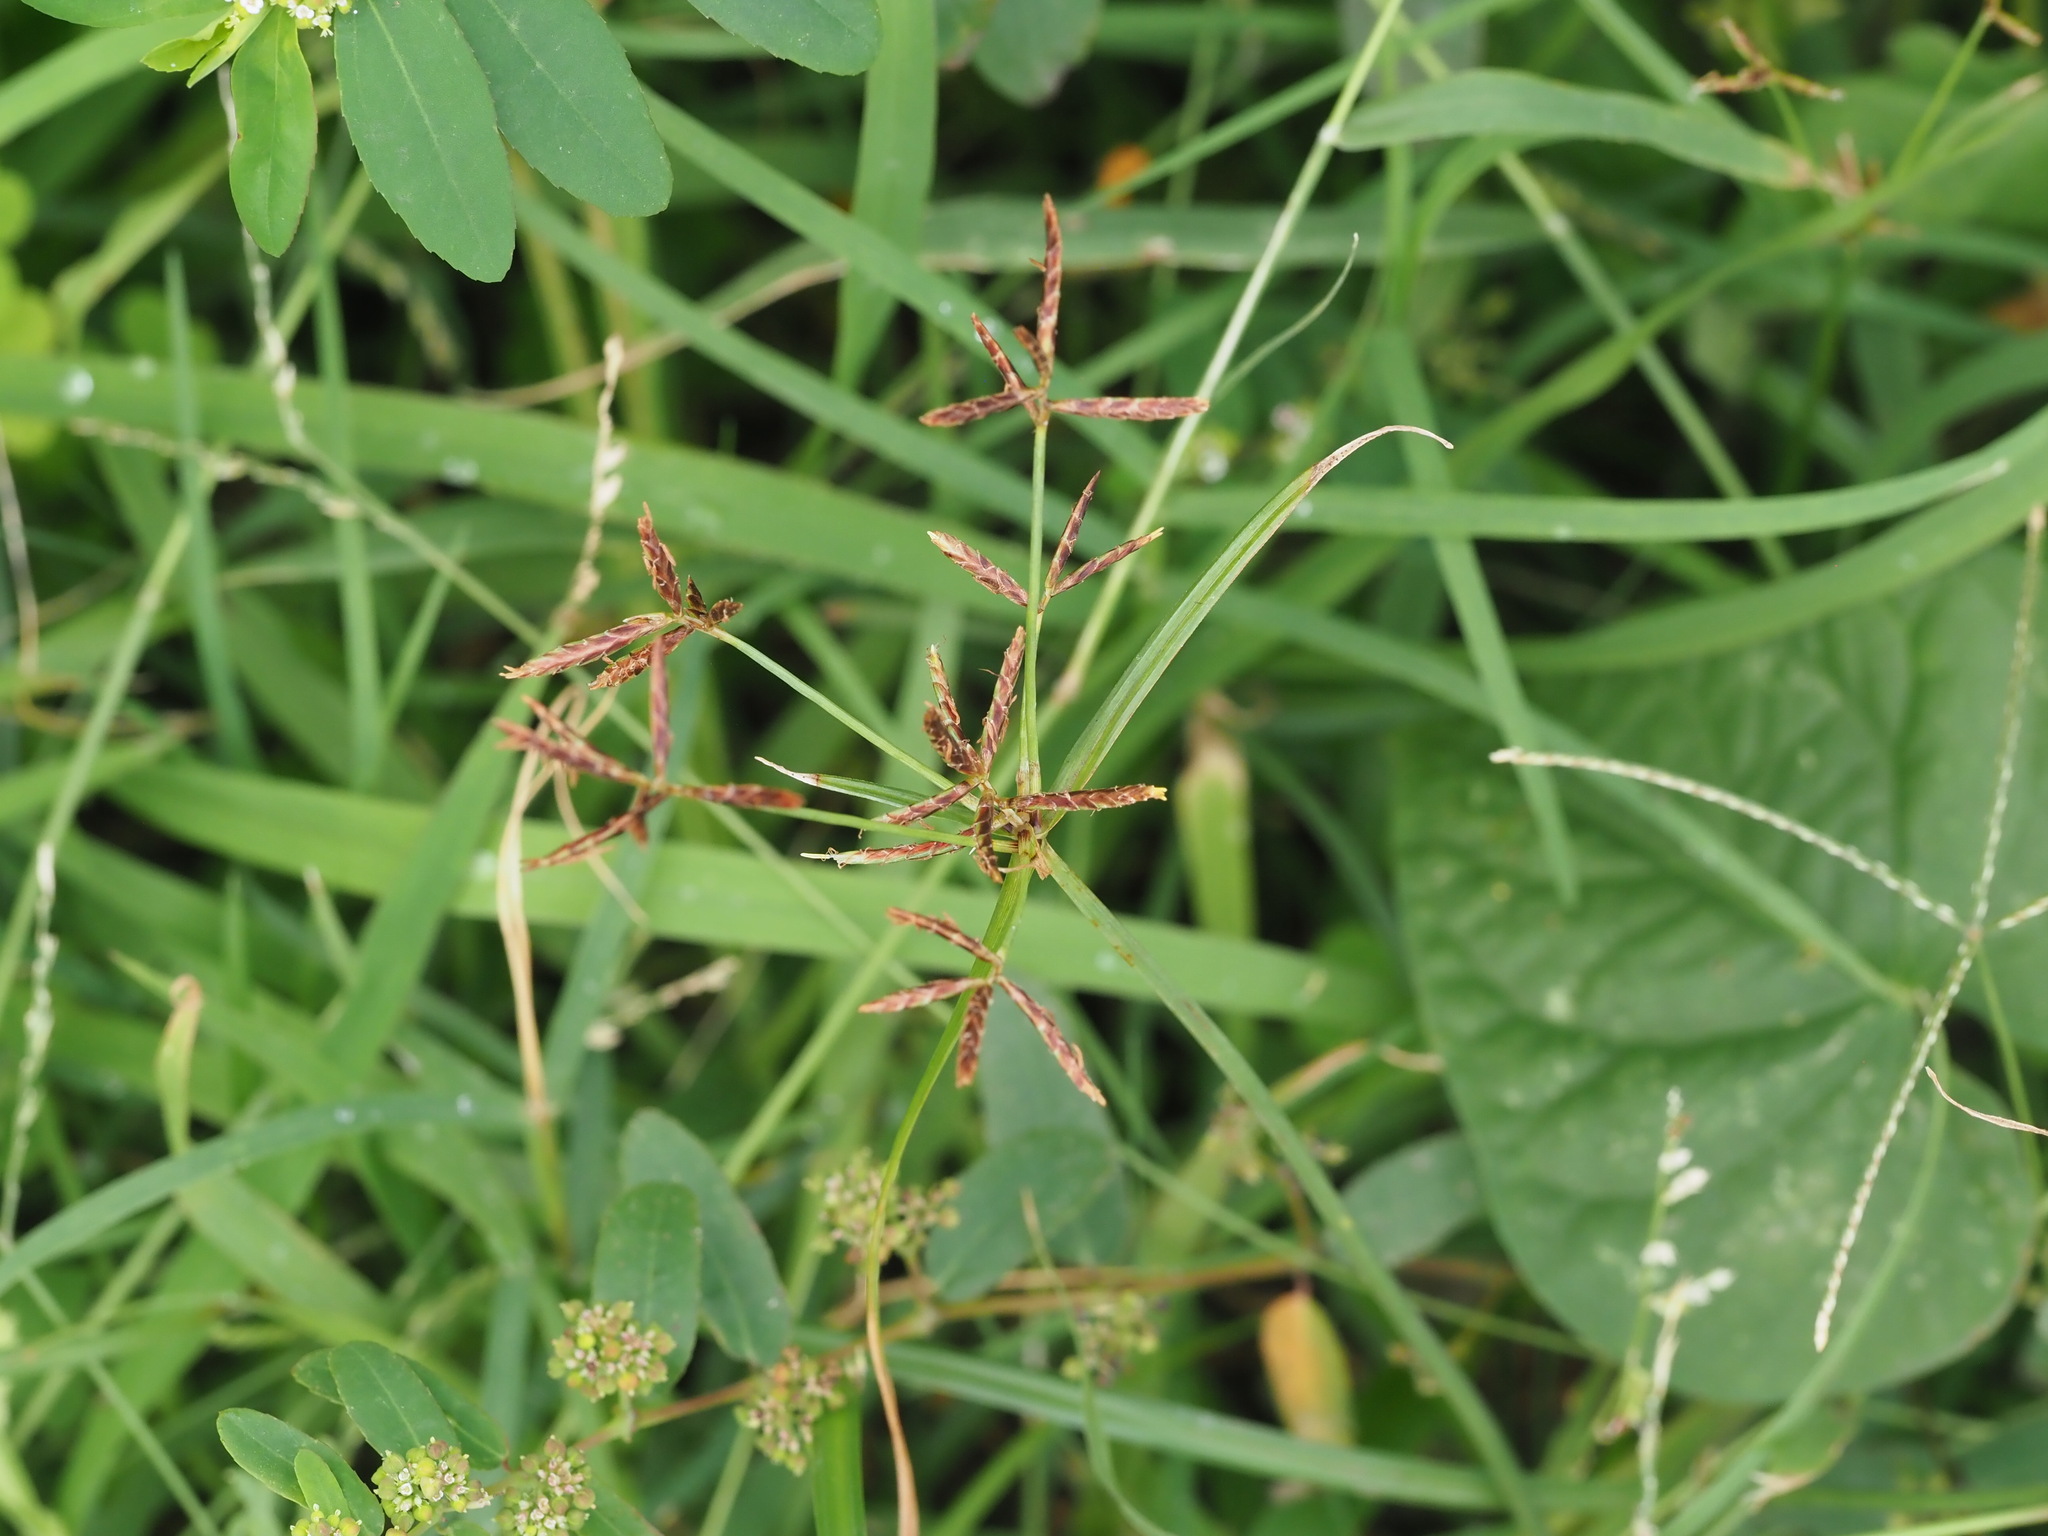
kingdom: Plantae
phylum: Tracheophyta
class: Liliopsida
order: Poales
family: Cyperaceae
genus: Cyperus
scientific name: Cyperus rotundus
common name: Nutgrass
